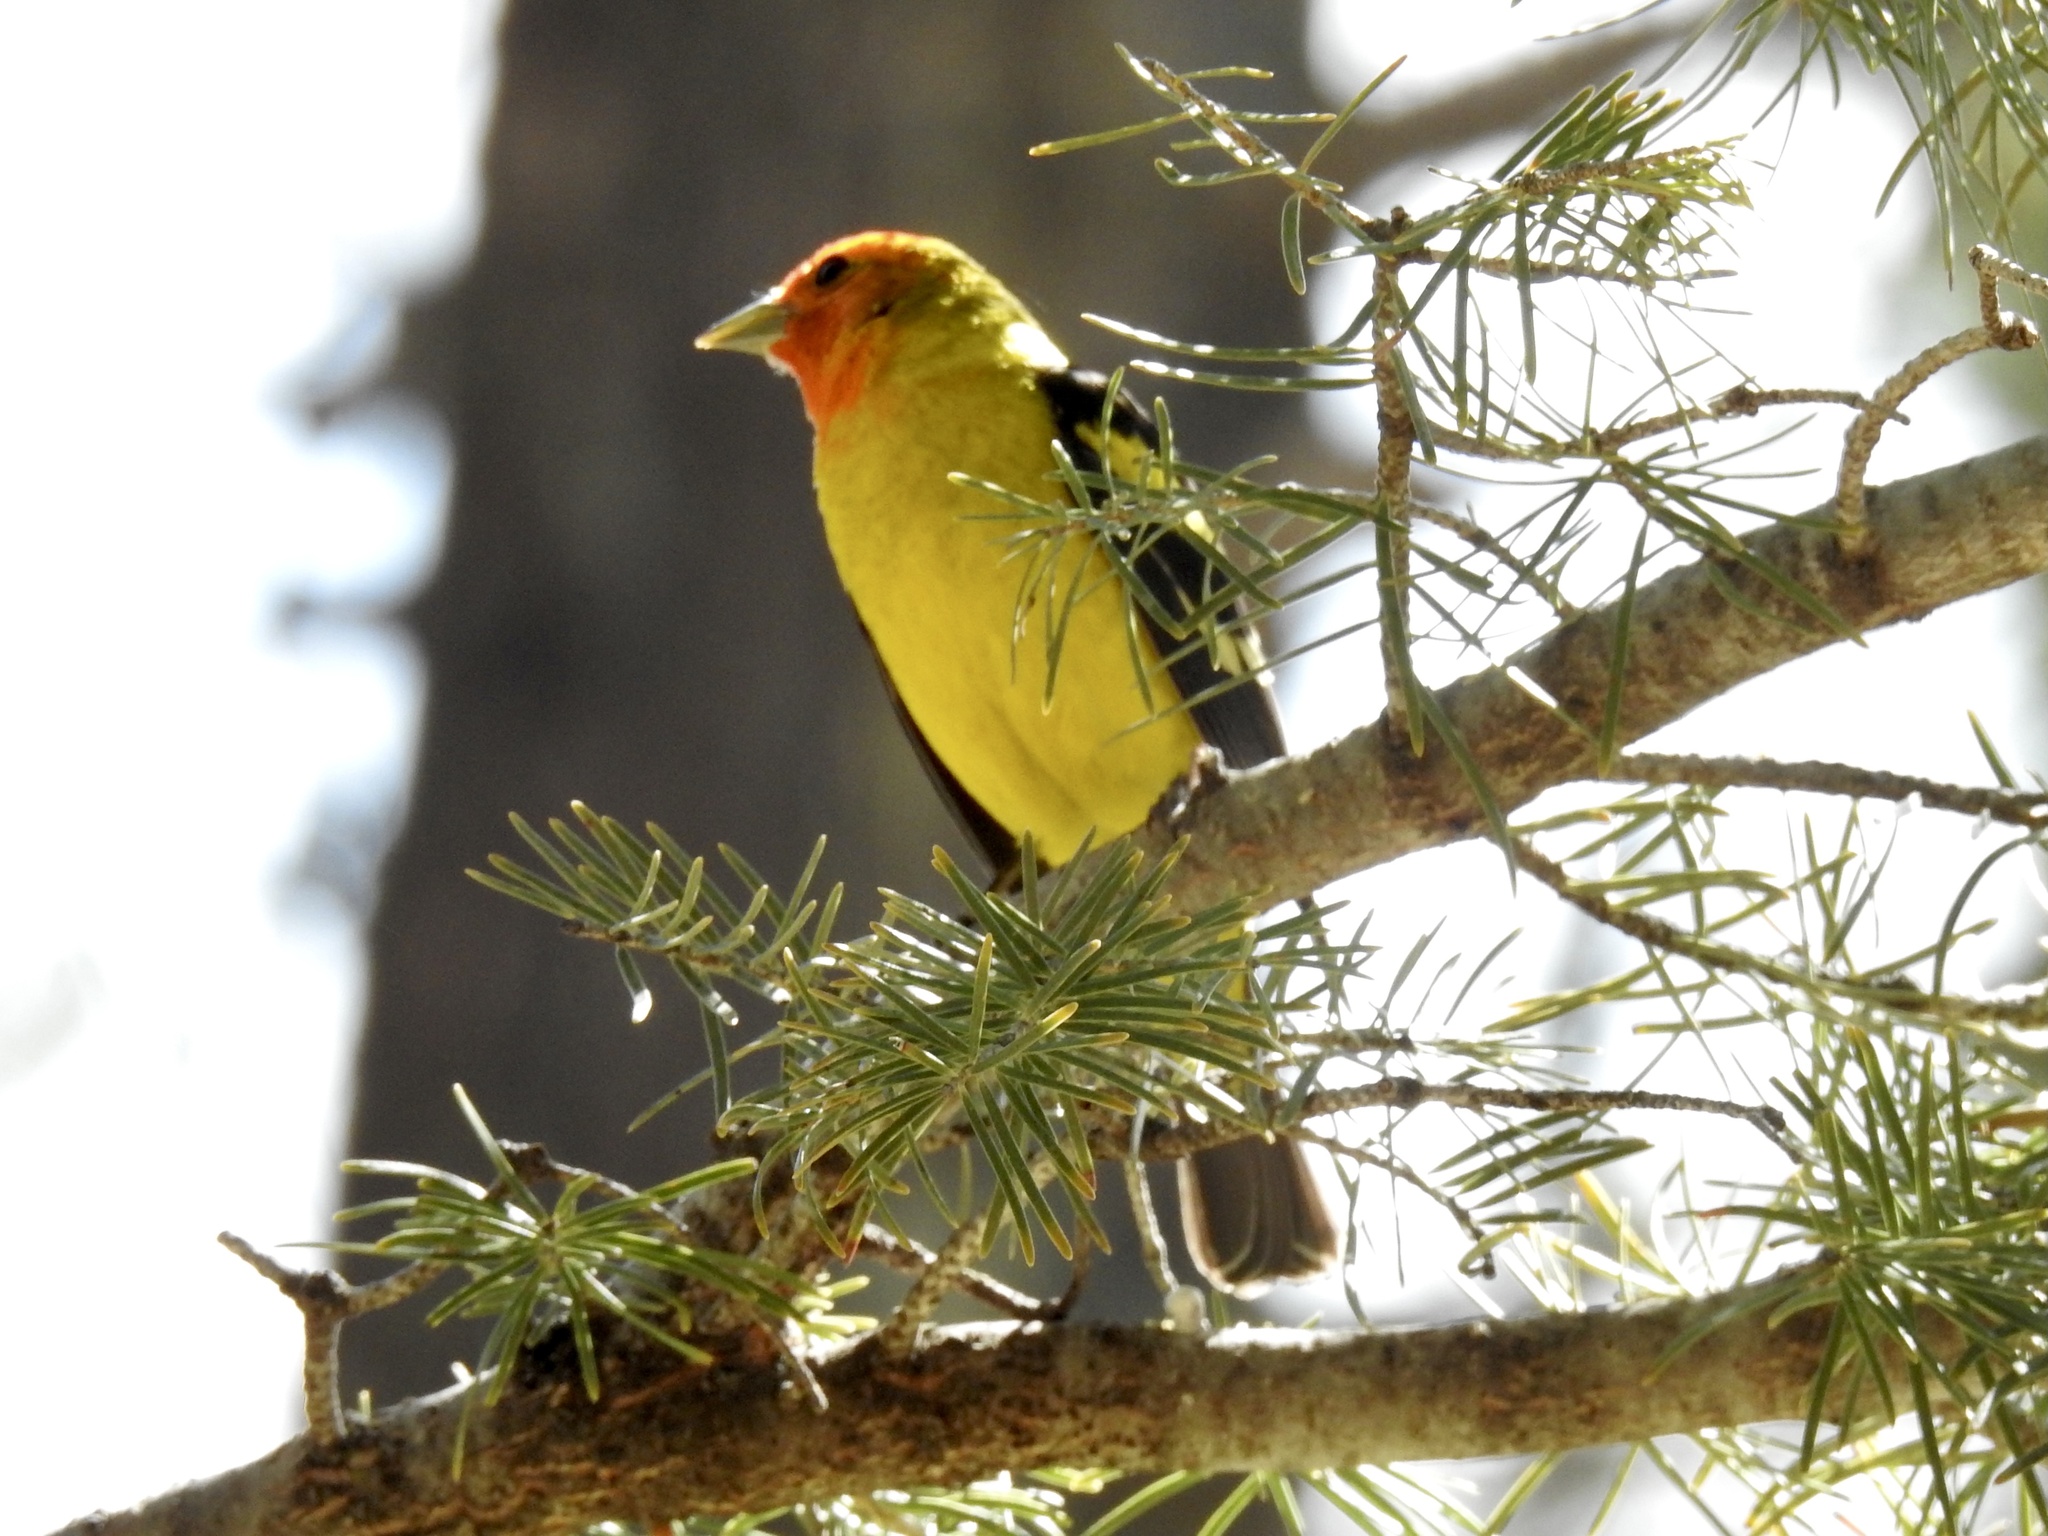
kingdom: Animalia
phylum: Chordata
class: Aves
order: Passeriformes
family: Cardinalidae
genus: Piranga
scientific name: Piranga ludoviciana
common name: Western tanager
